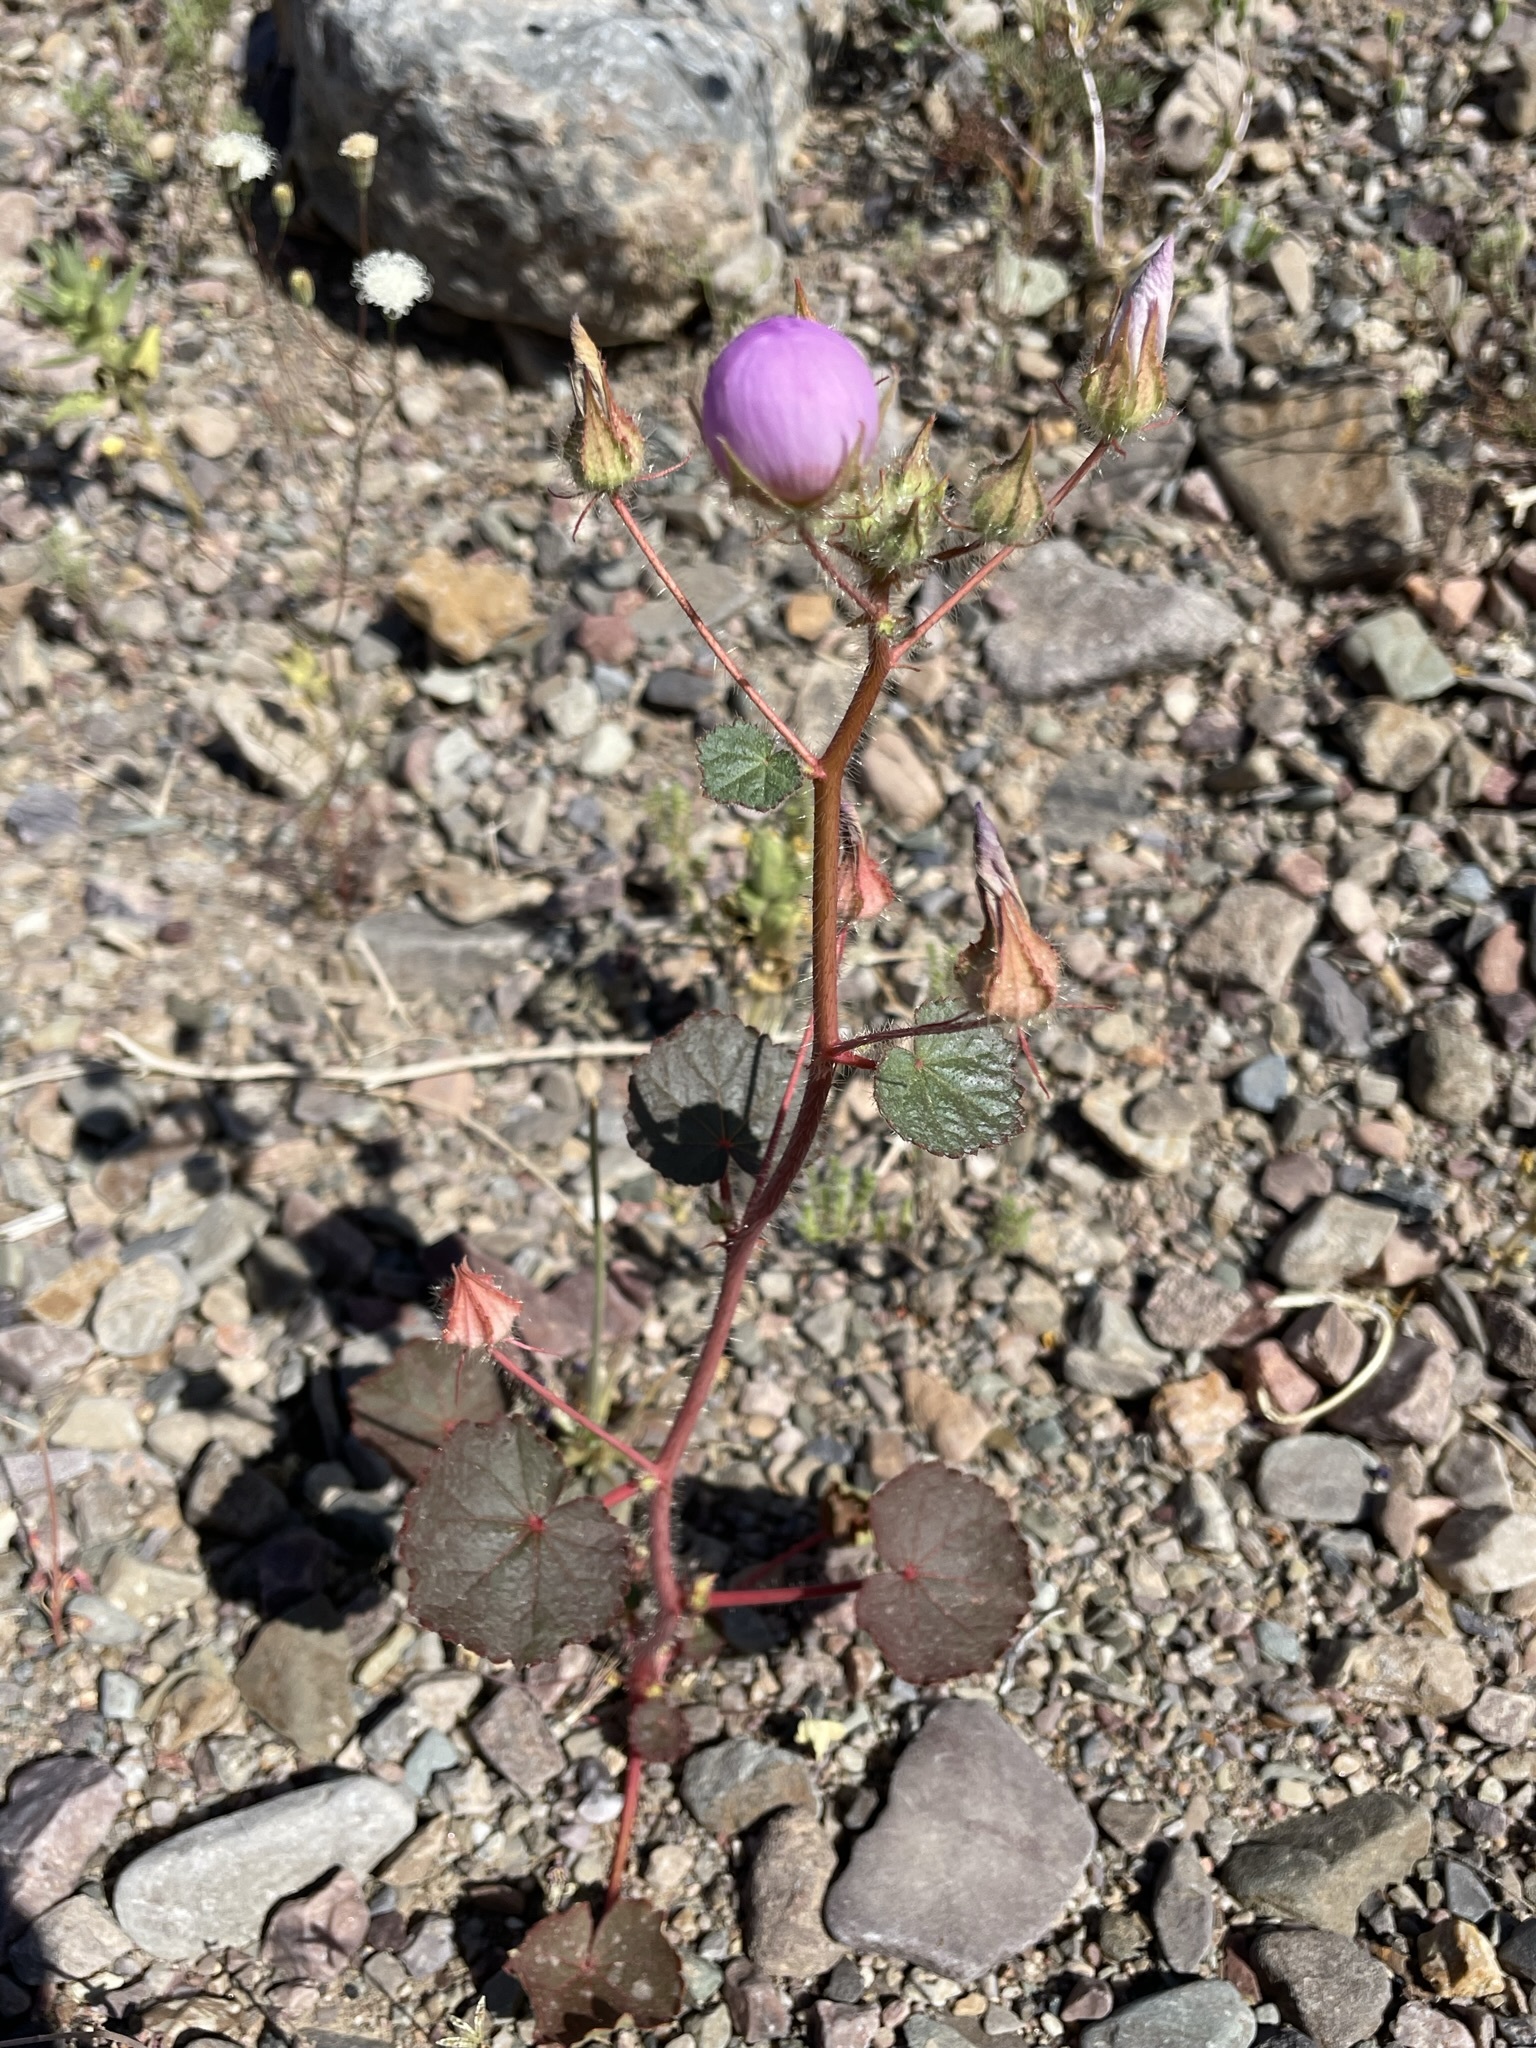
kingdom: Plantae
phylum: Tracheophyta
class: Magnoliopsida
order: Malvales
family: Malvaceae
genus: Eremalche
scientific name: Eremalche rotundifolia
